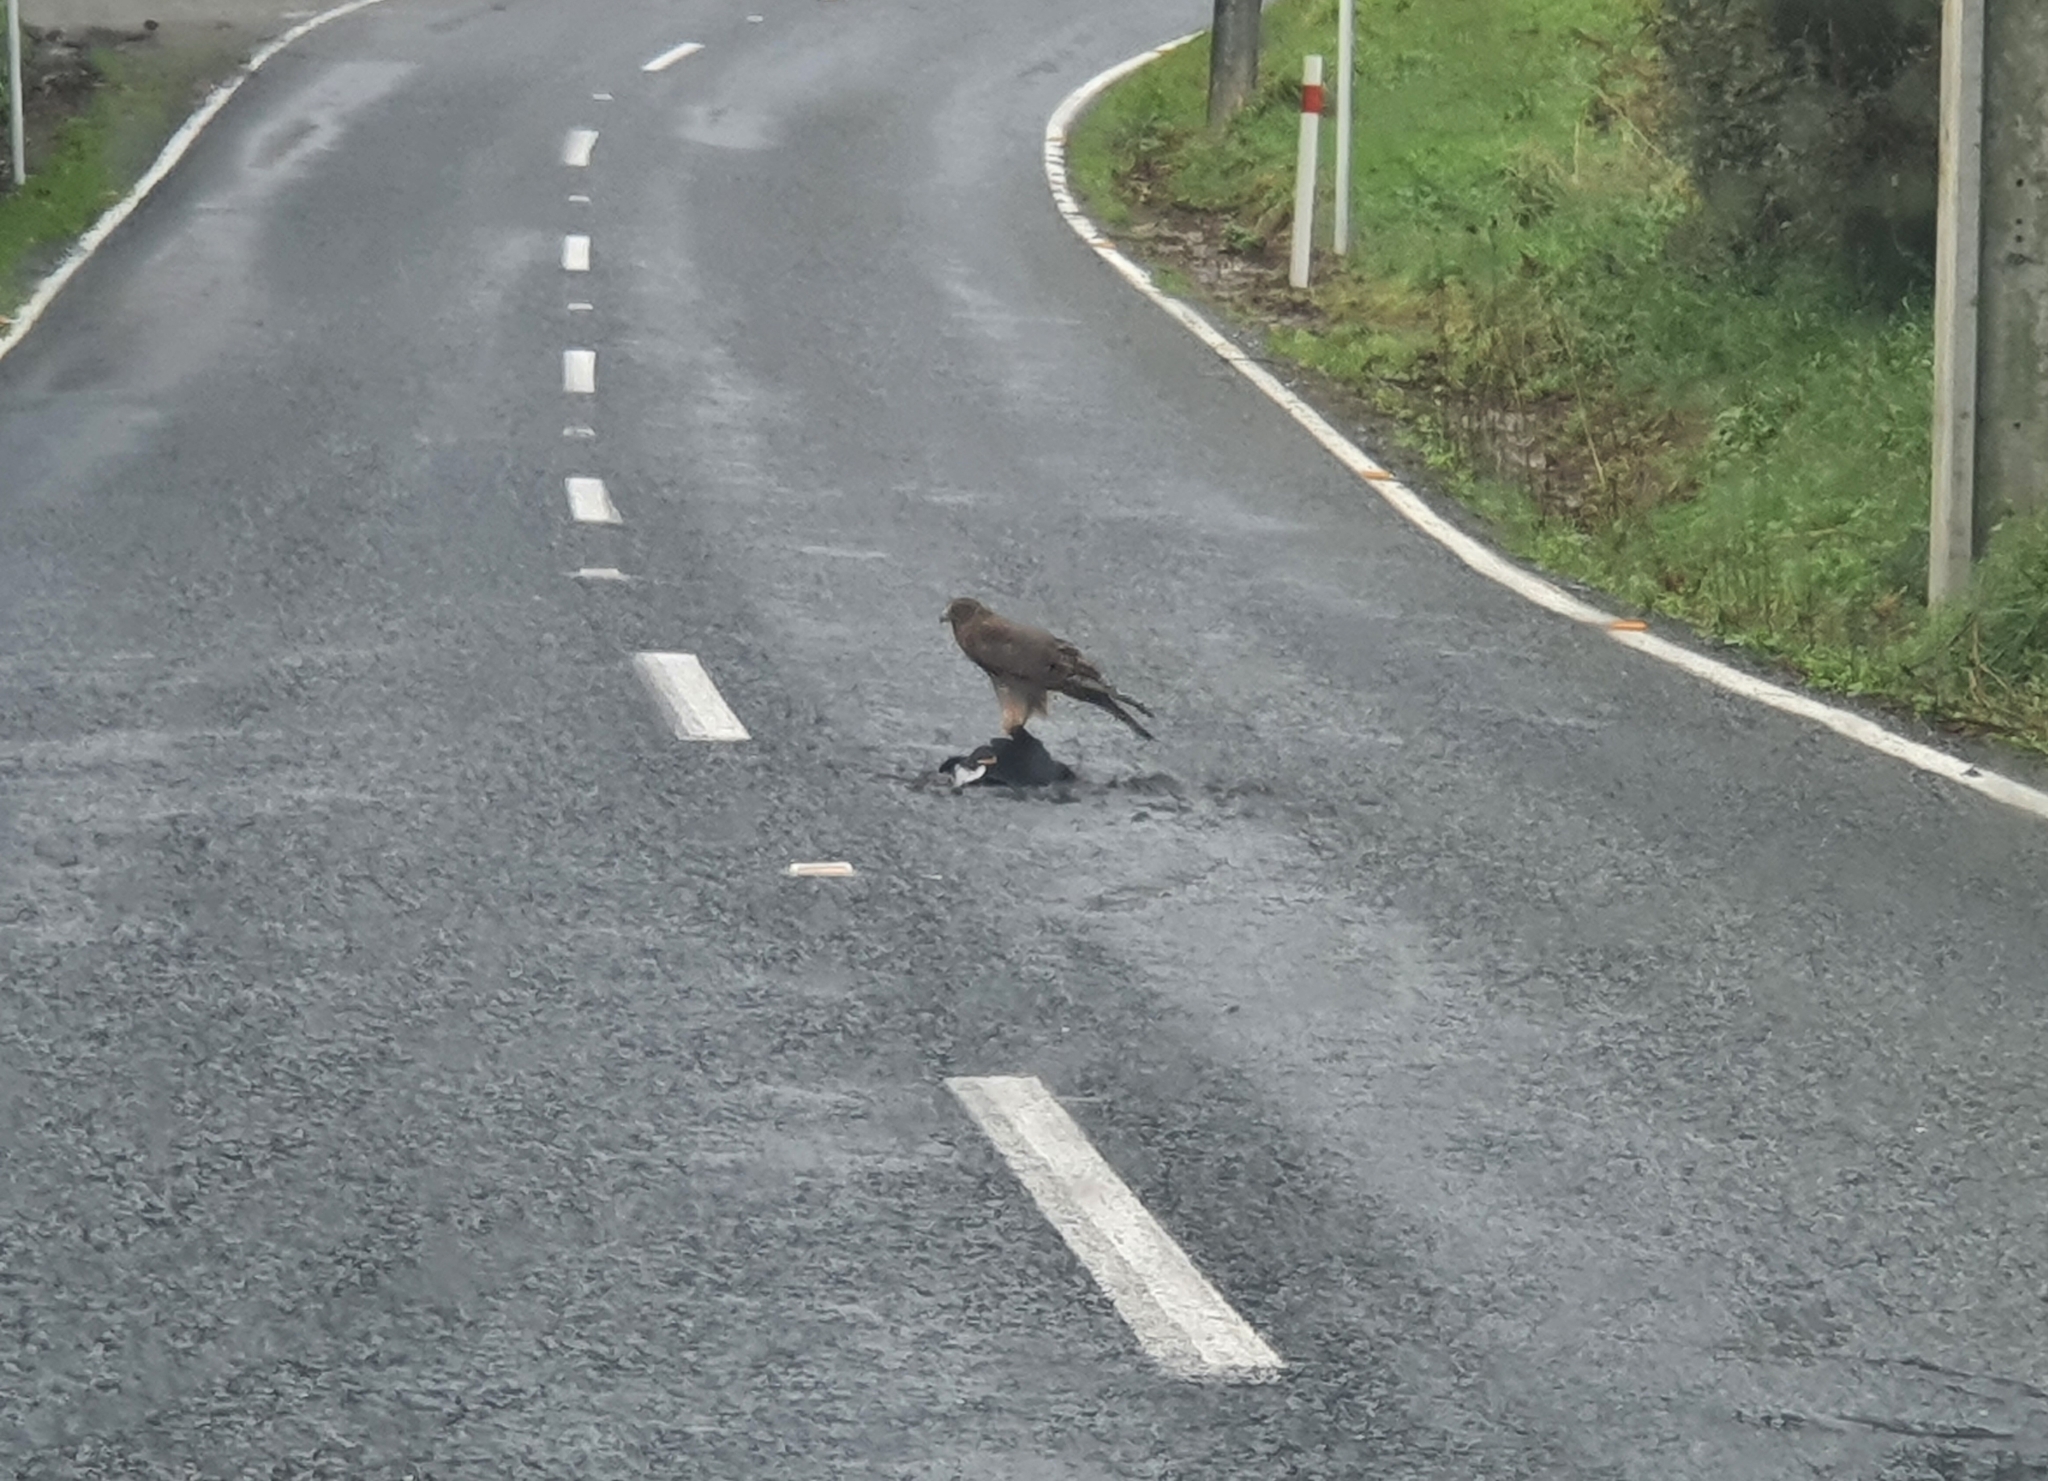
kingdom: Animalia
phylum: Chordata
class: Aves
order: Accipitriformes
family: Accipitridae
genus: Circus
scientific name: Circus approximans
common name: Swamp harrier
